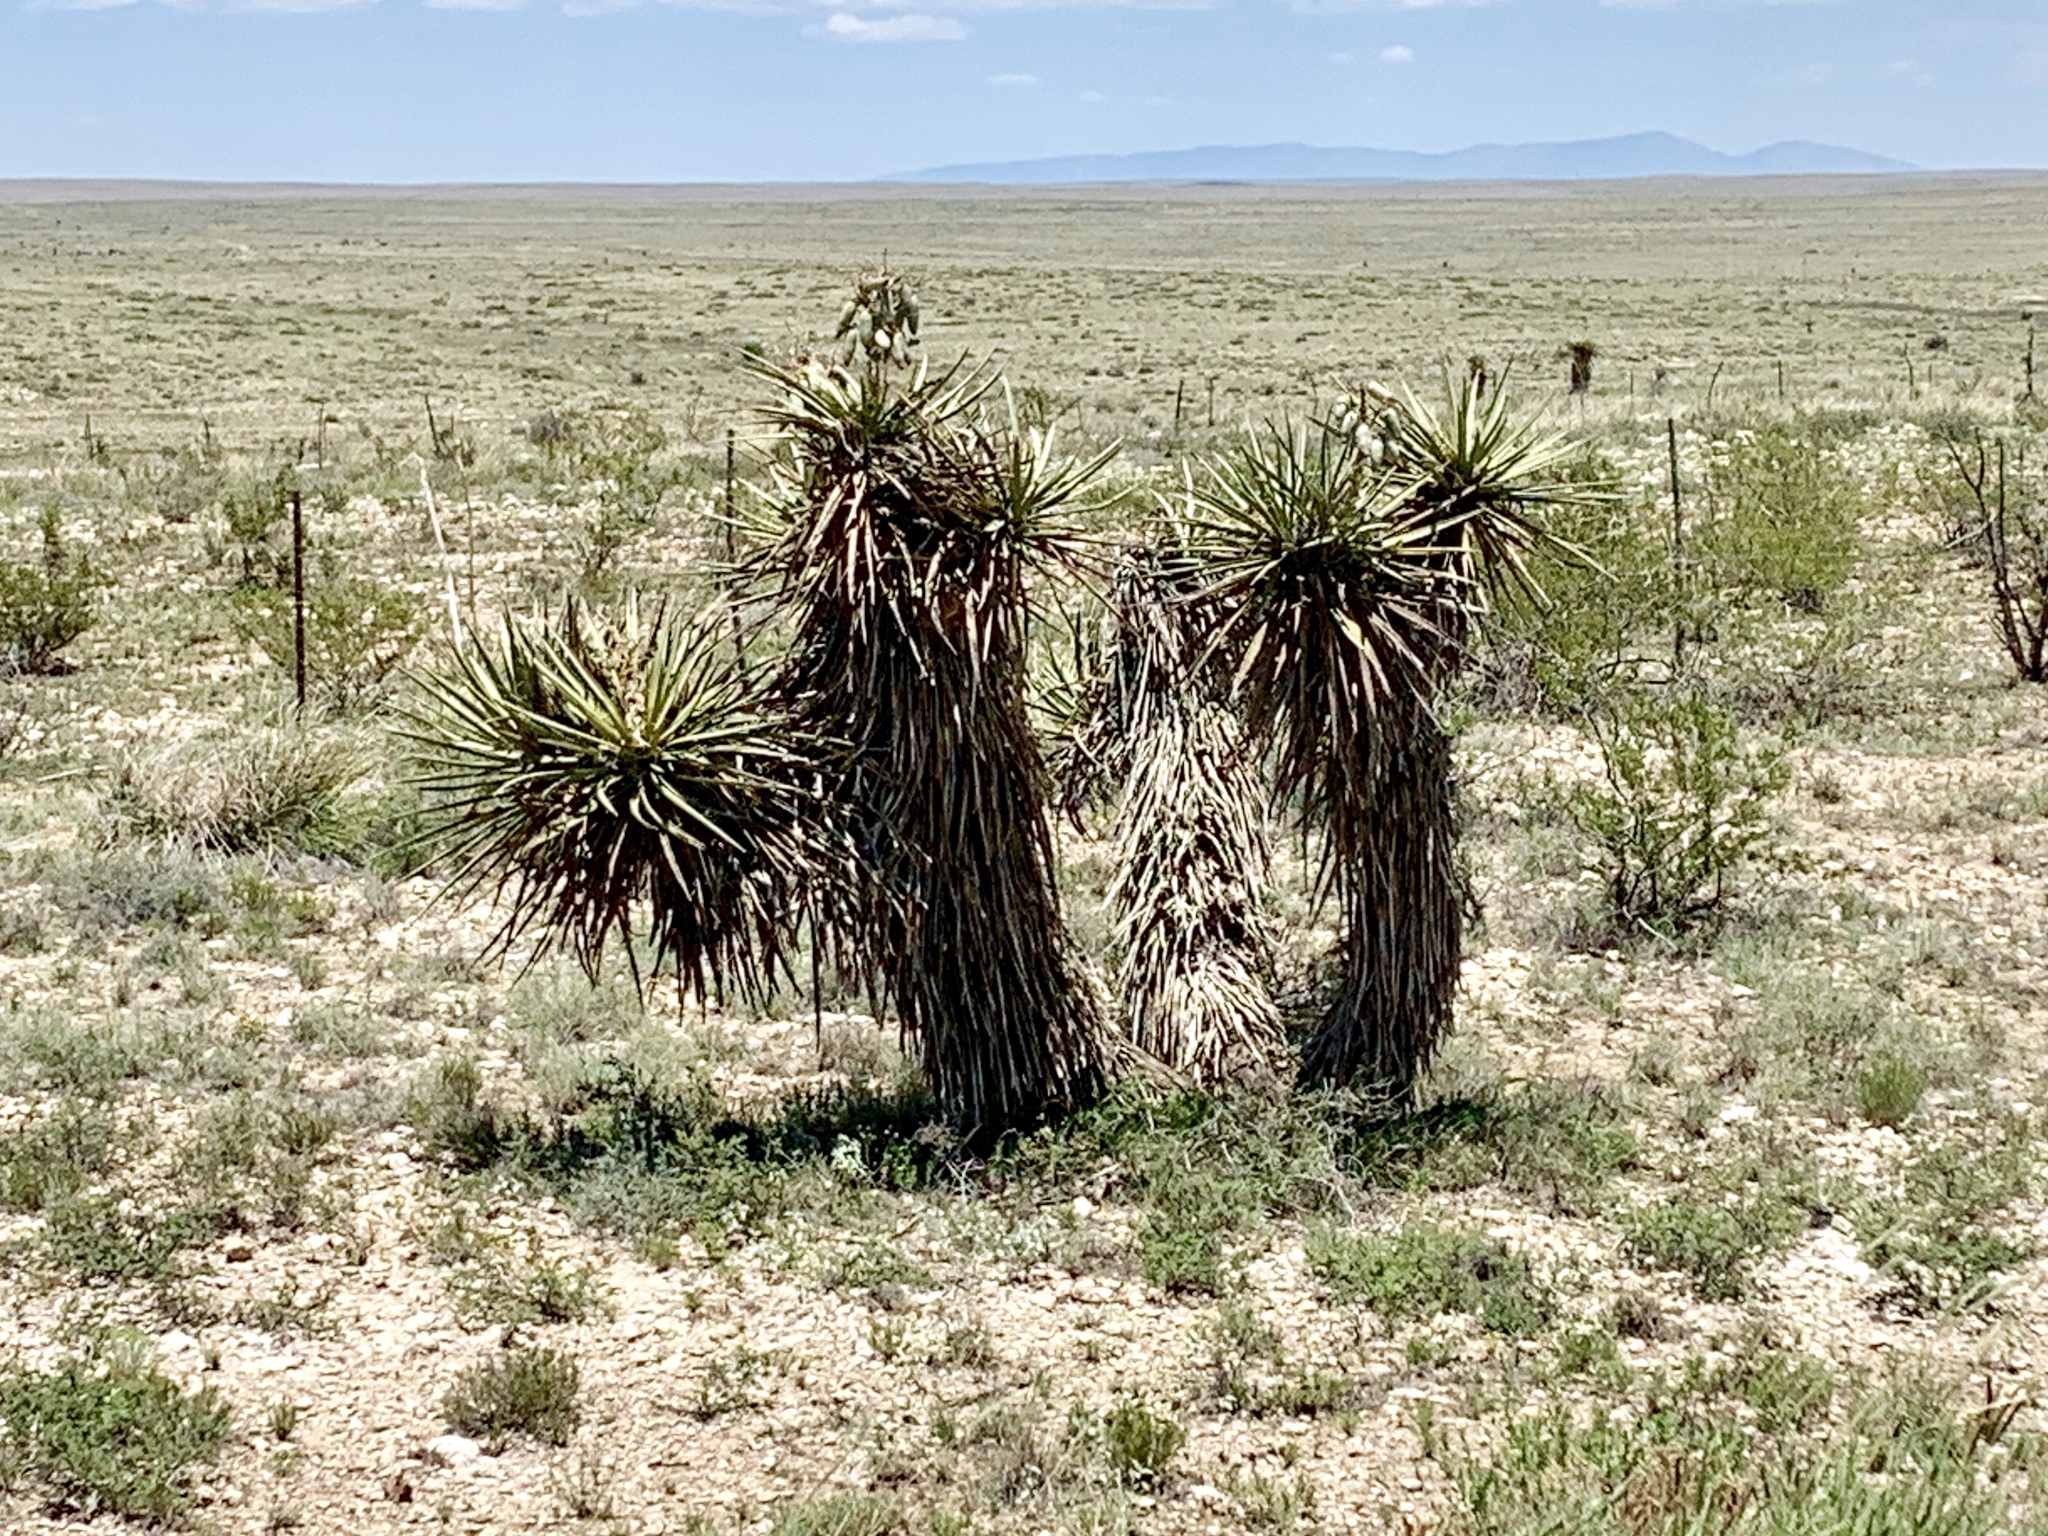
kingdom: Plantae
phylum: Tracheophyta
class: Liliopsida
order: Asparagales
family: Asparagaceae
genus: Yucca
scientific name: Yucca treculiana
